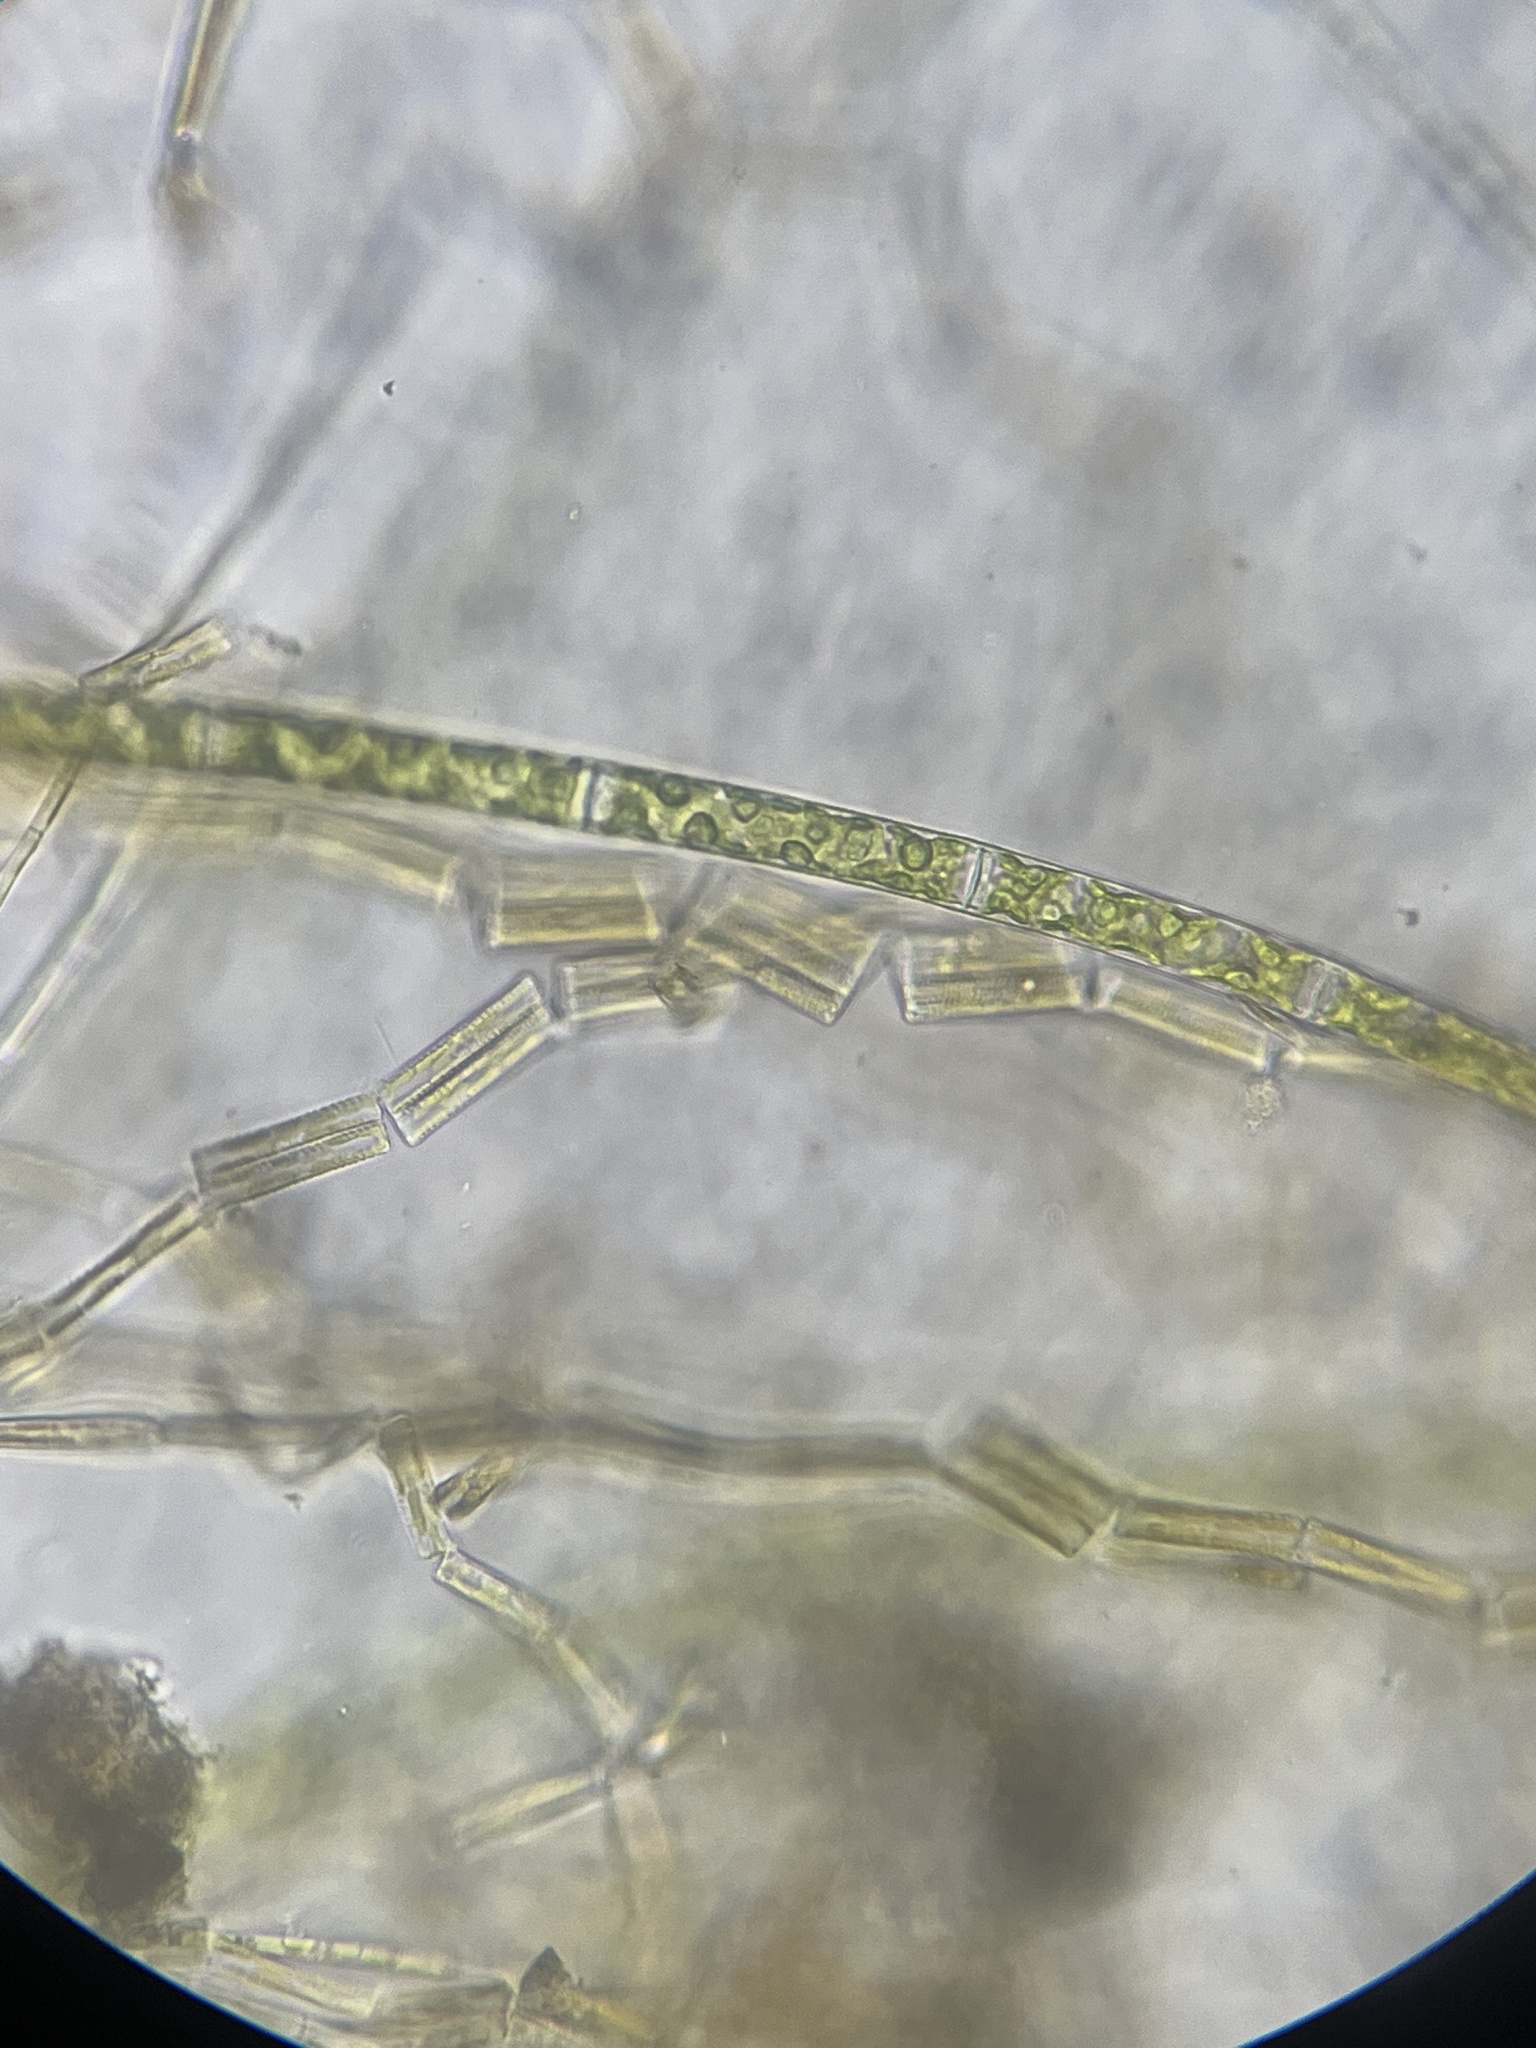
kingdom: Plantae
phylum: Charophyta
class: Zygnematophyceae
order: Zygnematales
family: Zygnemataceae
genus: Spirogyra
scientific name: Spirogyra
